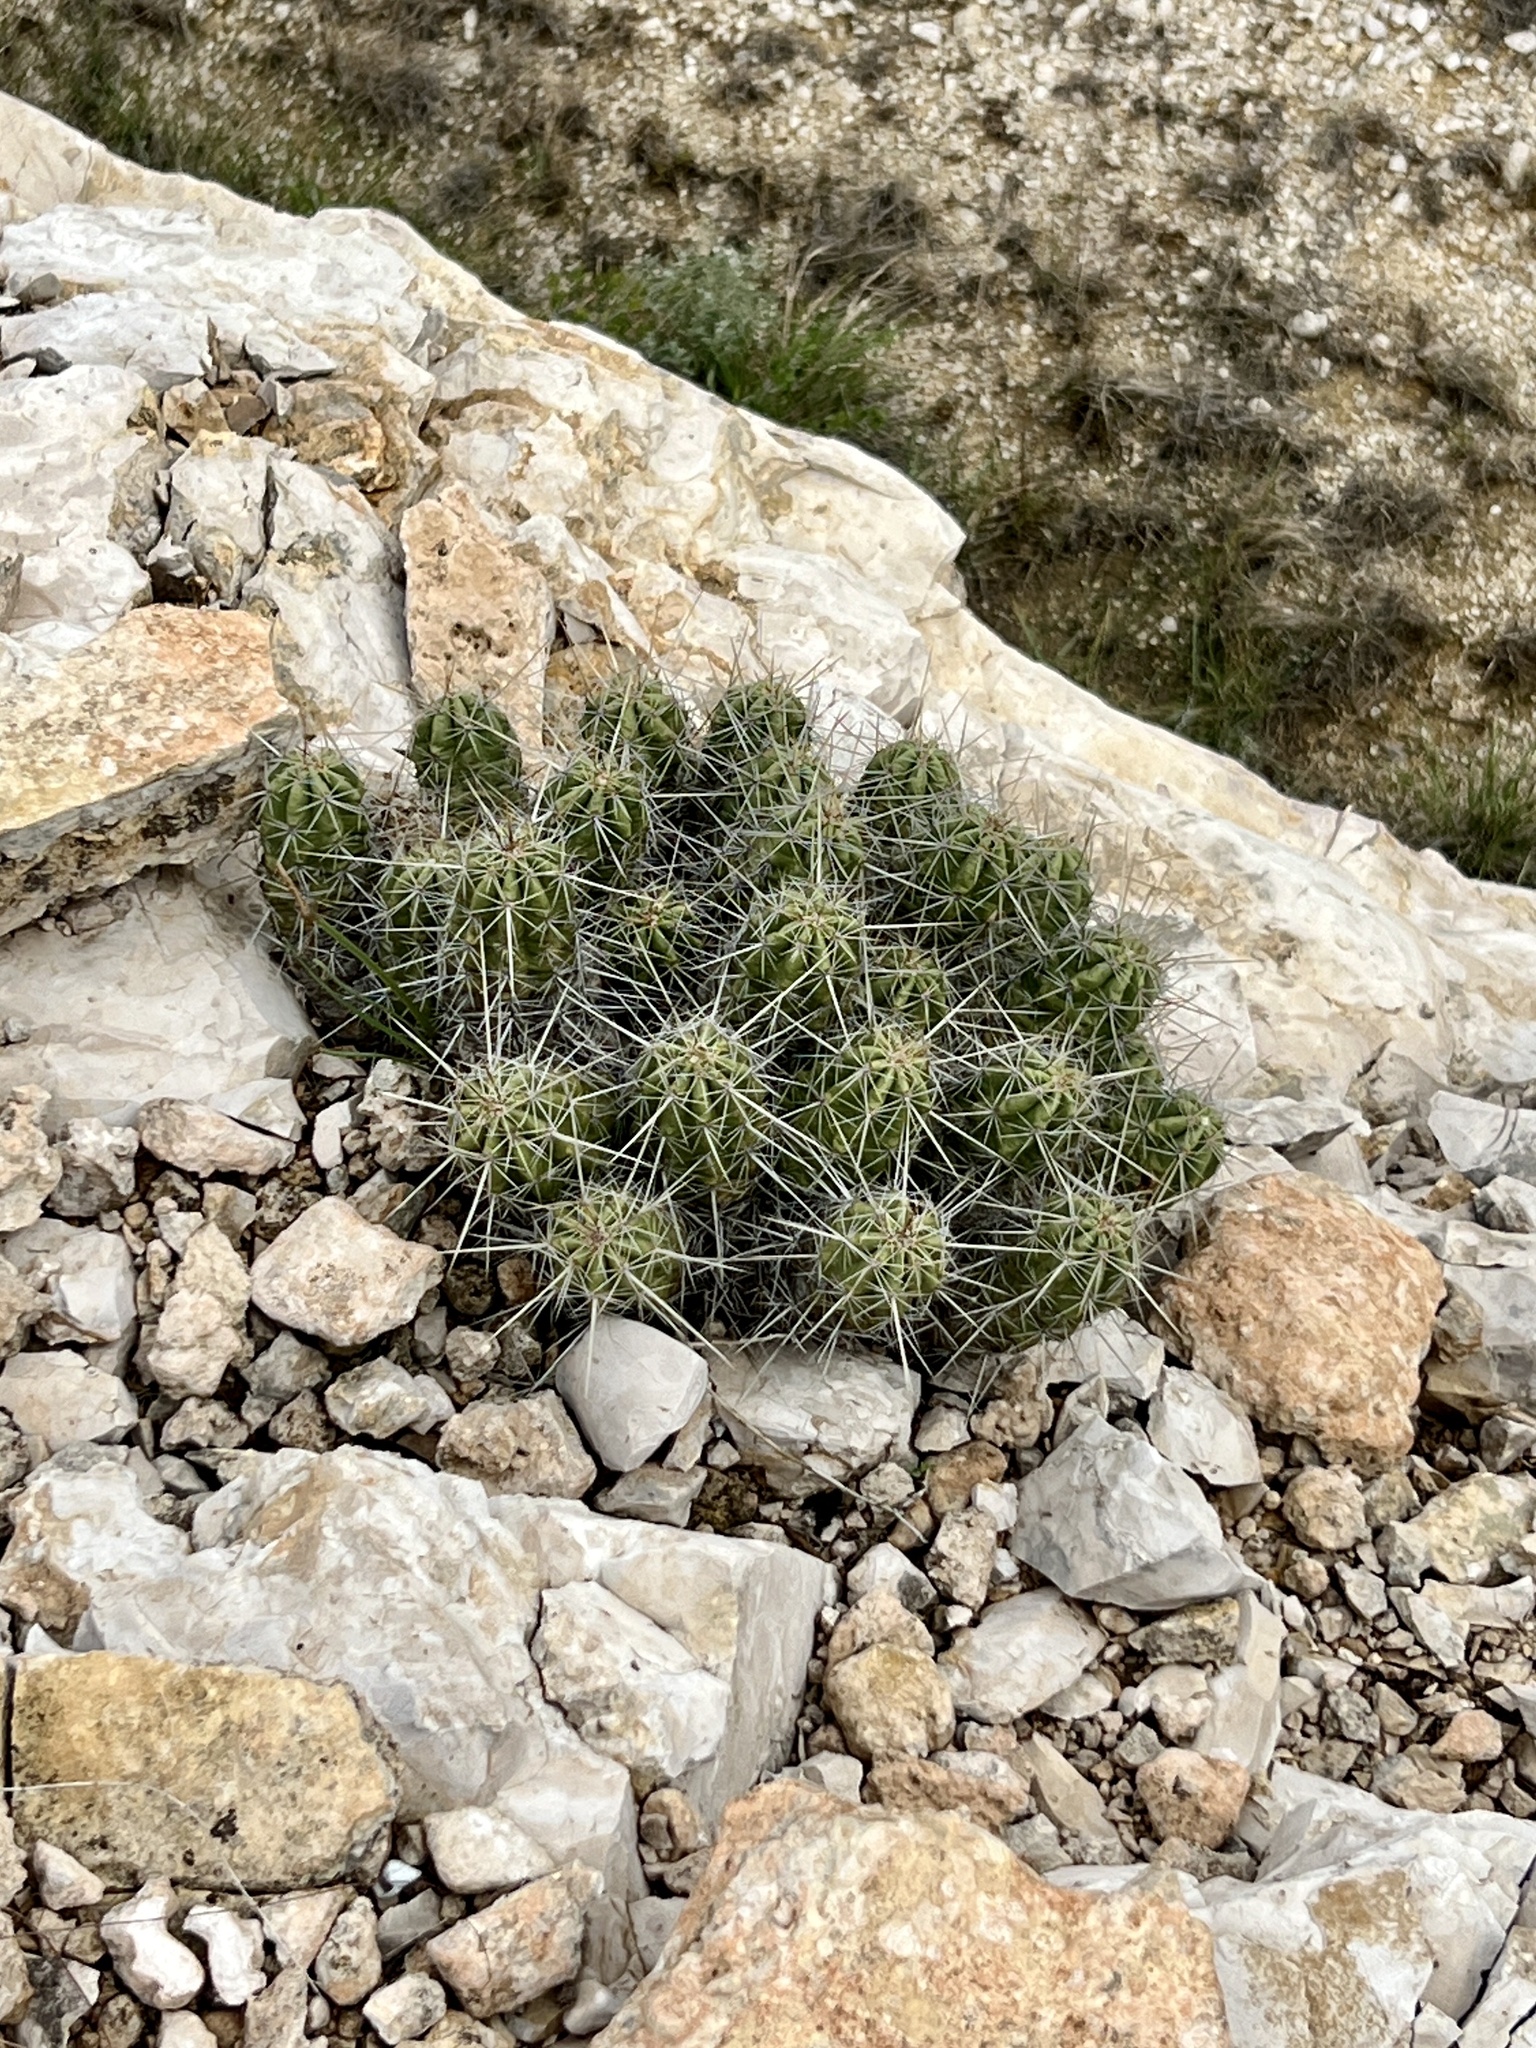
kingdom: Plantae
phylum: Tracheophyta
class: Magnoliopsida
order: Caryophyllales
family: Cactaceae
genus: Echinocereus
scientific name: Echinocereus enneacanthus
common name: Pitaya
